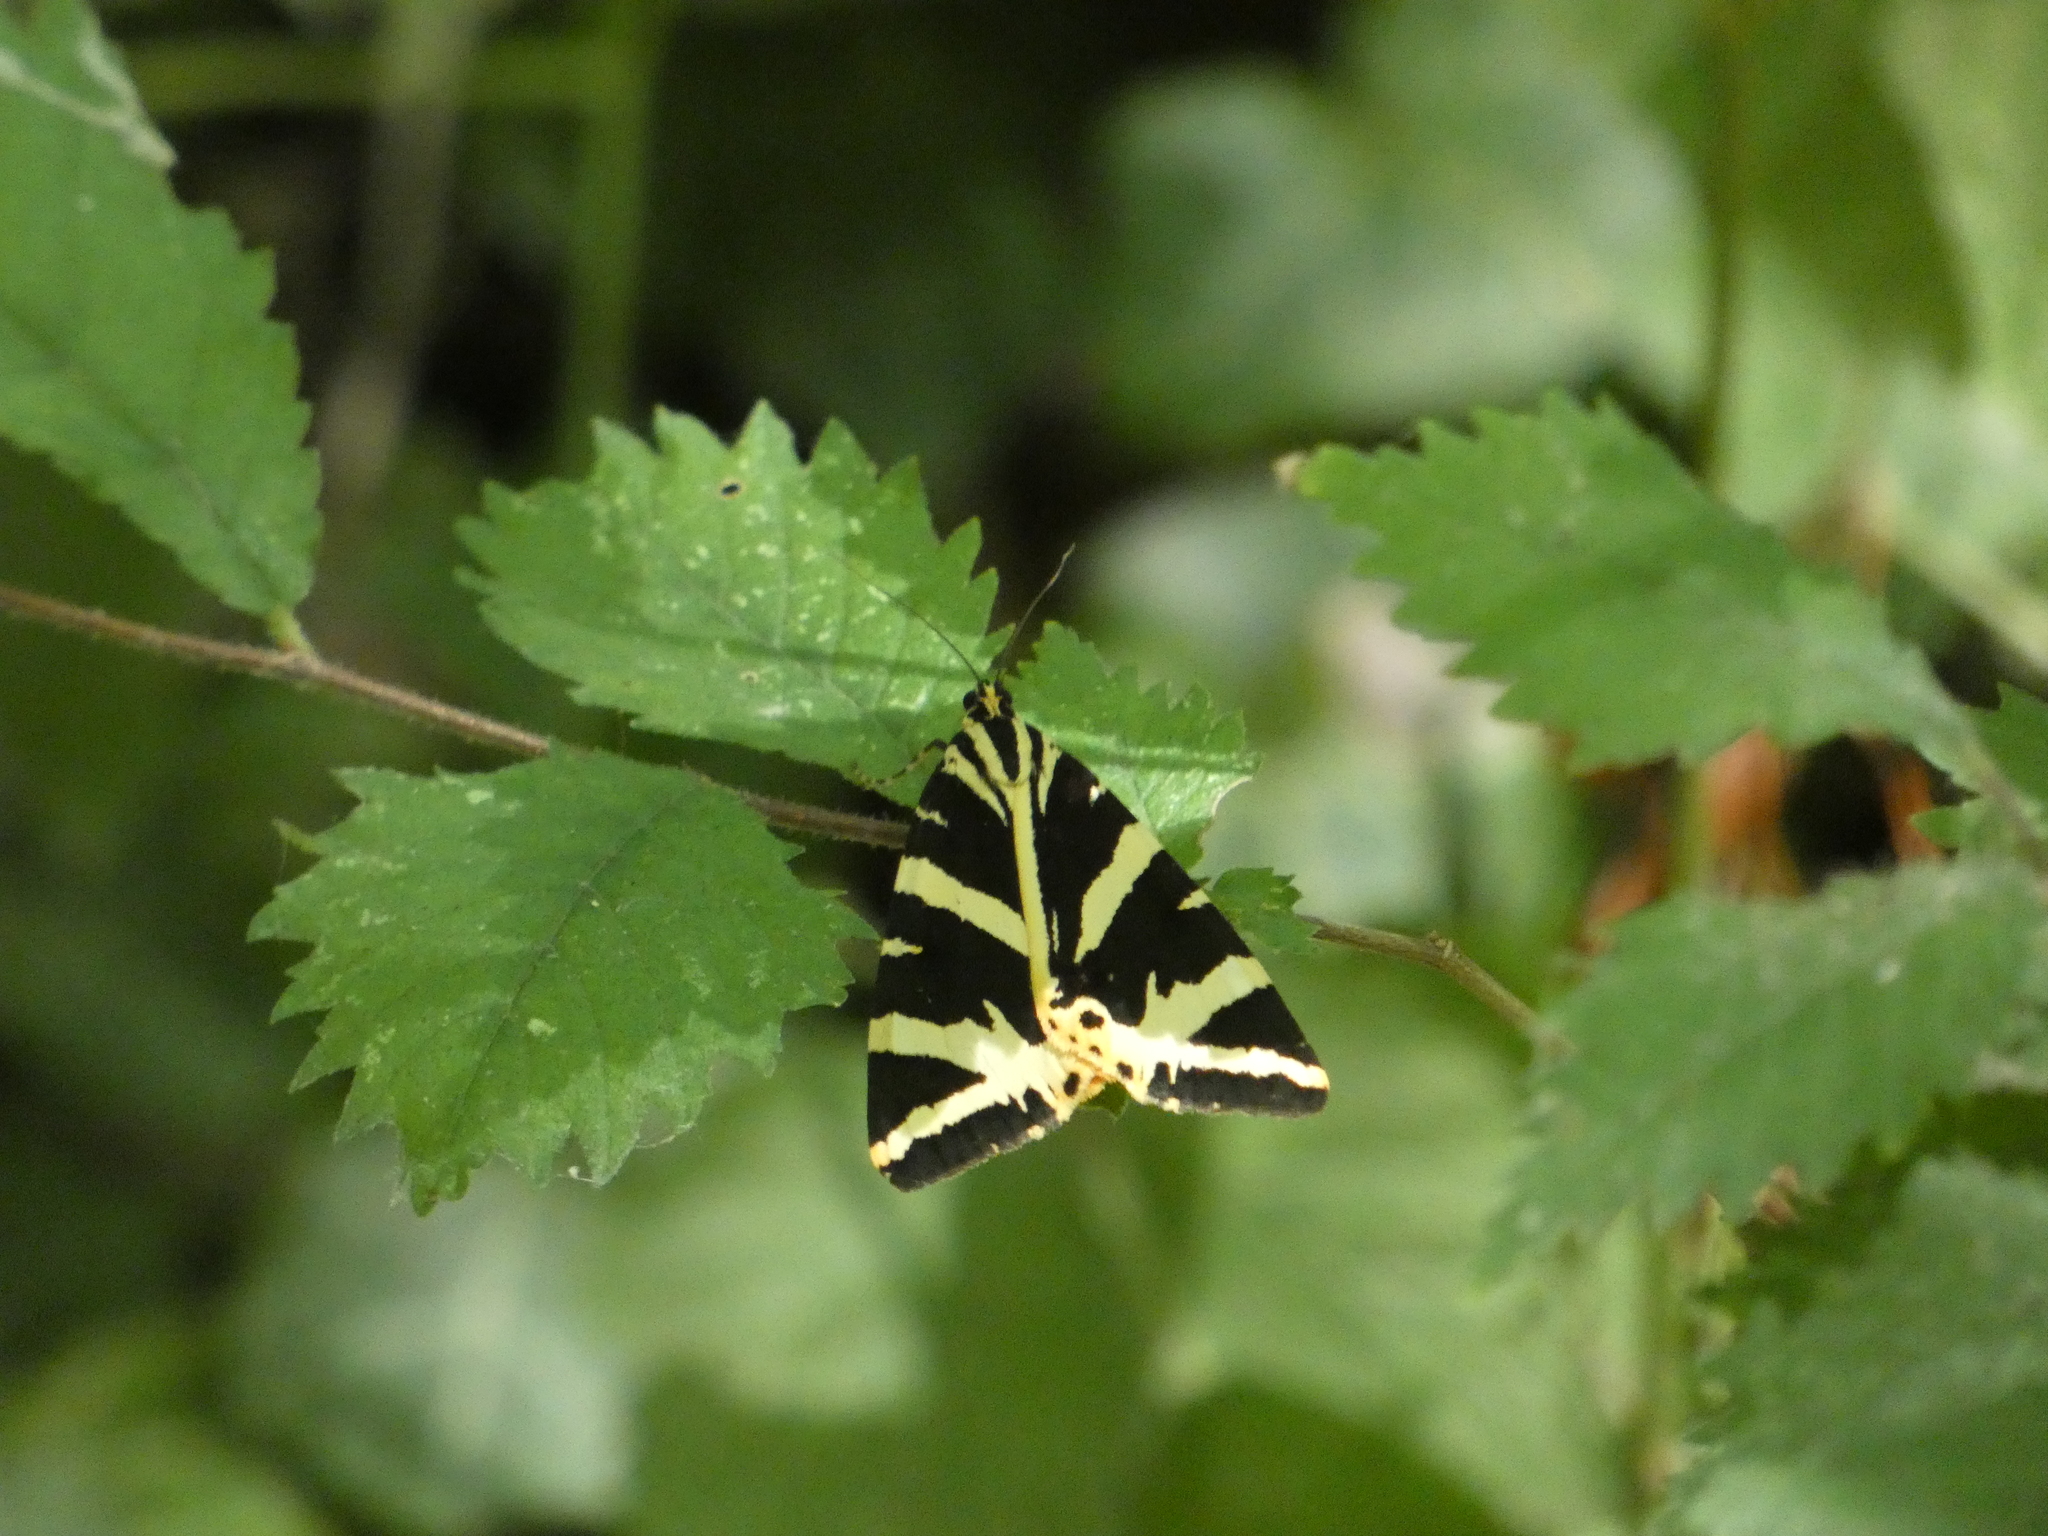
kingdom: Animalia
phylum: Arthropoda
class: Insecta
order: Lepidoptera
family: Erebidae
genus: Euplagia
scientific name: Euplagia quadripunctaria
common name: Jersey tiger
